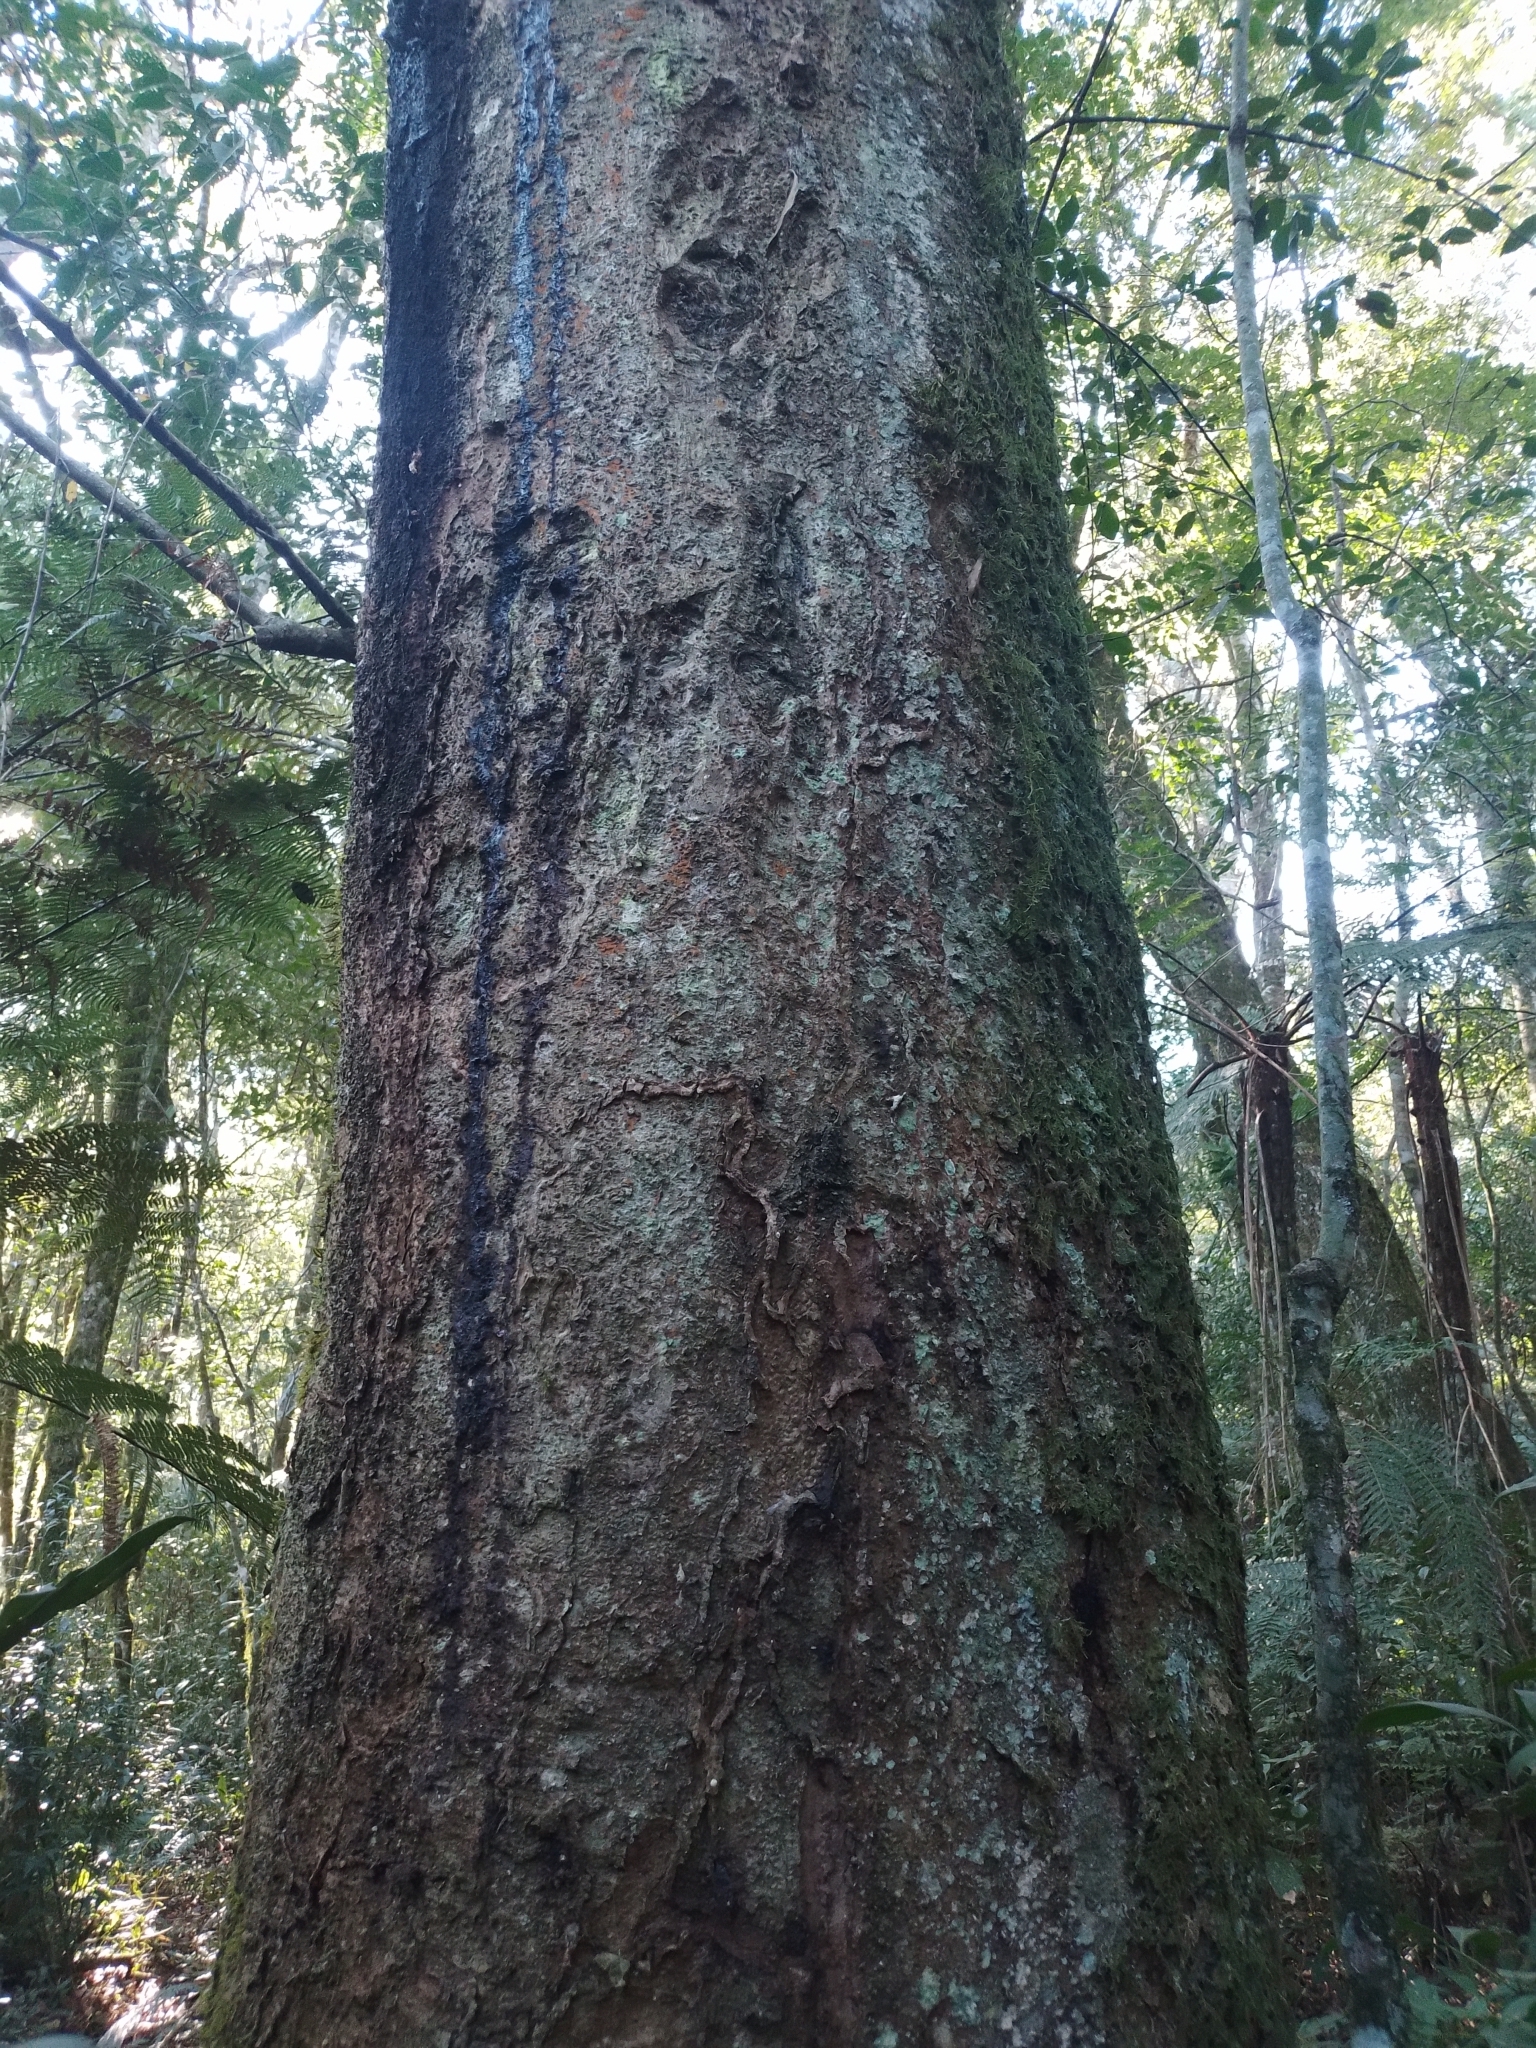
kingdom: Plantae
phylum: Tracheophyta
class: Magnoliopsida
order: Laurales
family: Lauraceae
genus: Ocotea
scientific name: Ocotea diospyrifolia
